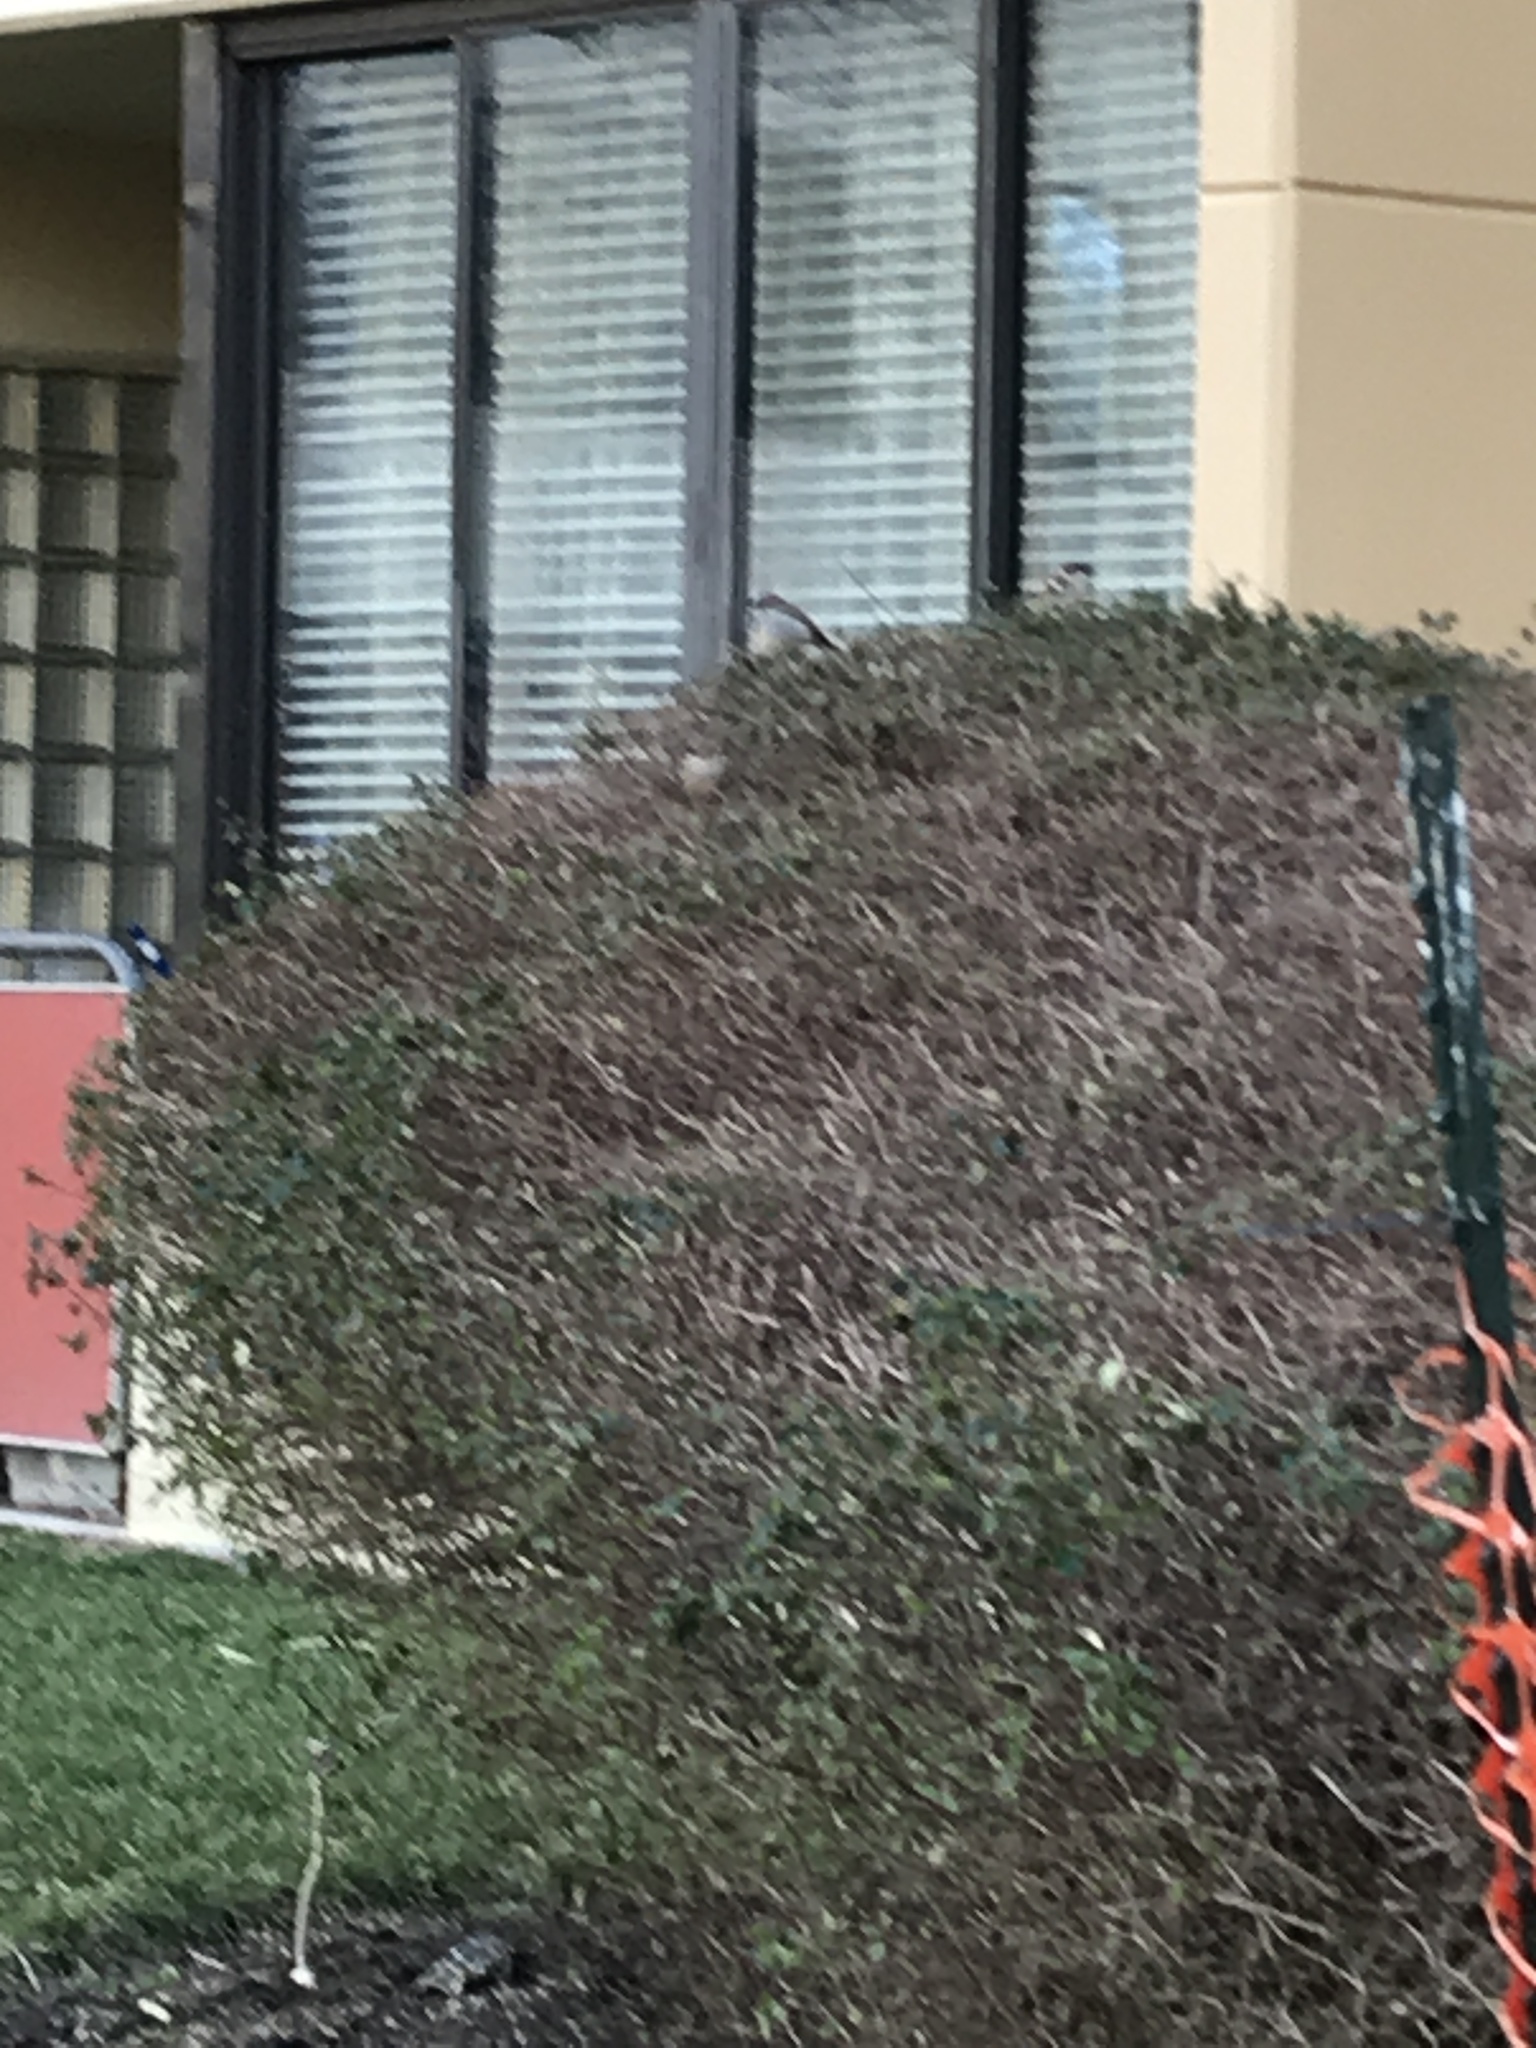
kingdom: Animalia
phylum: Chordata
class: Aves
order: Passeriformes
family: Passeridae
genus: Passer
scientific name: Passer domesticus
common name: House sparrow
